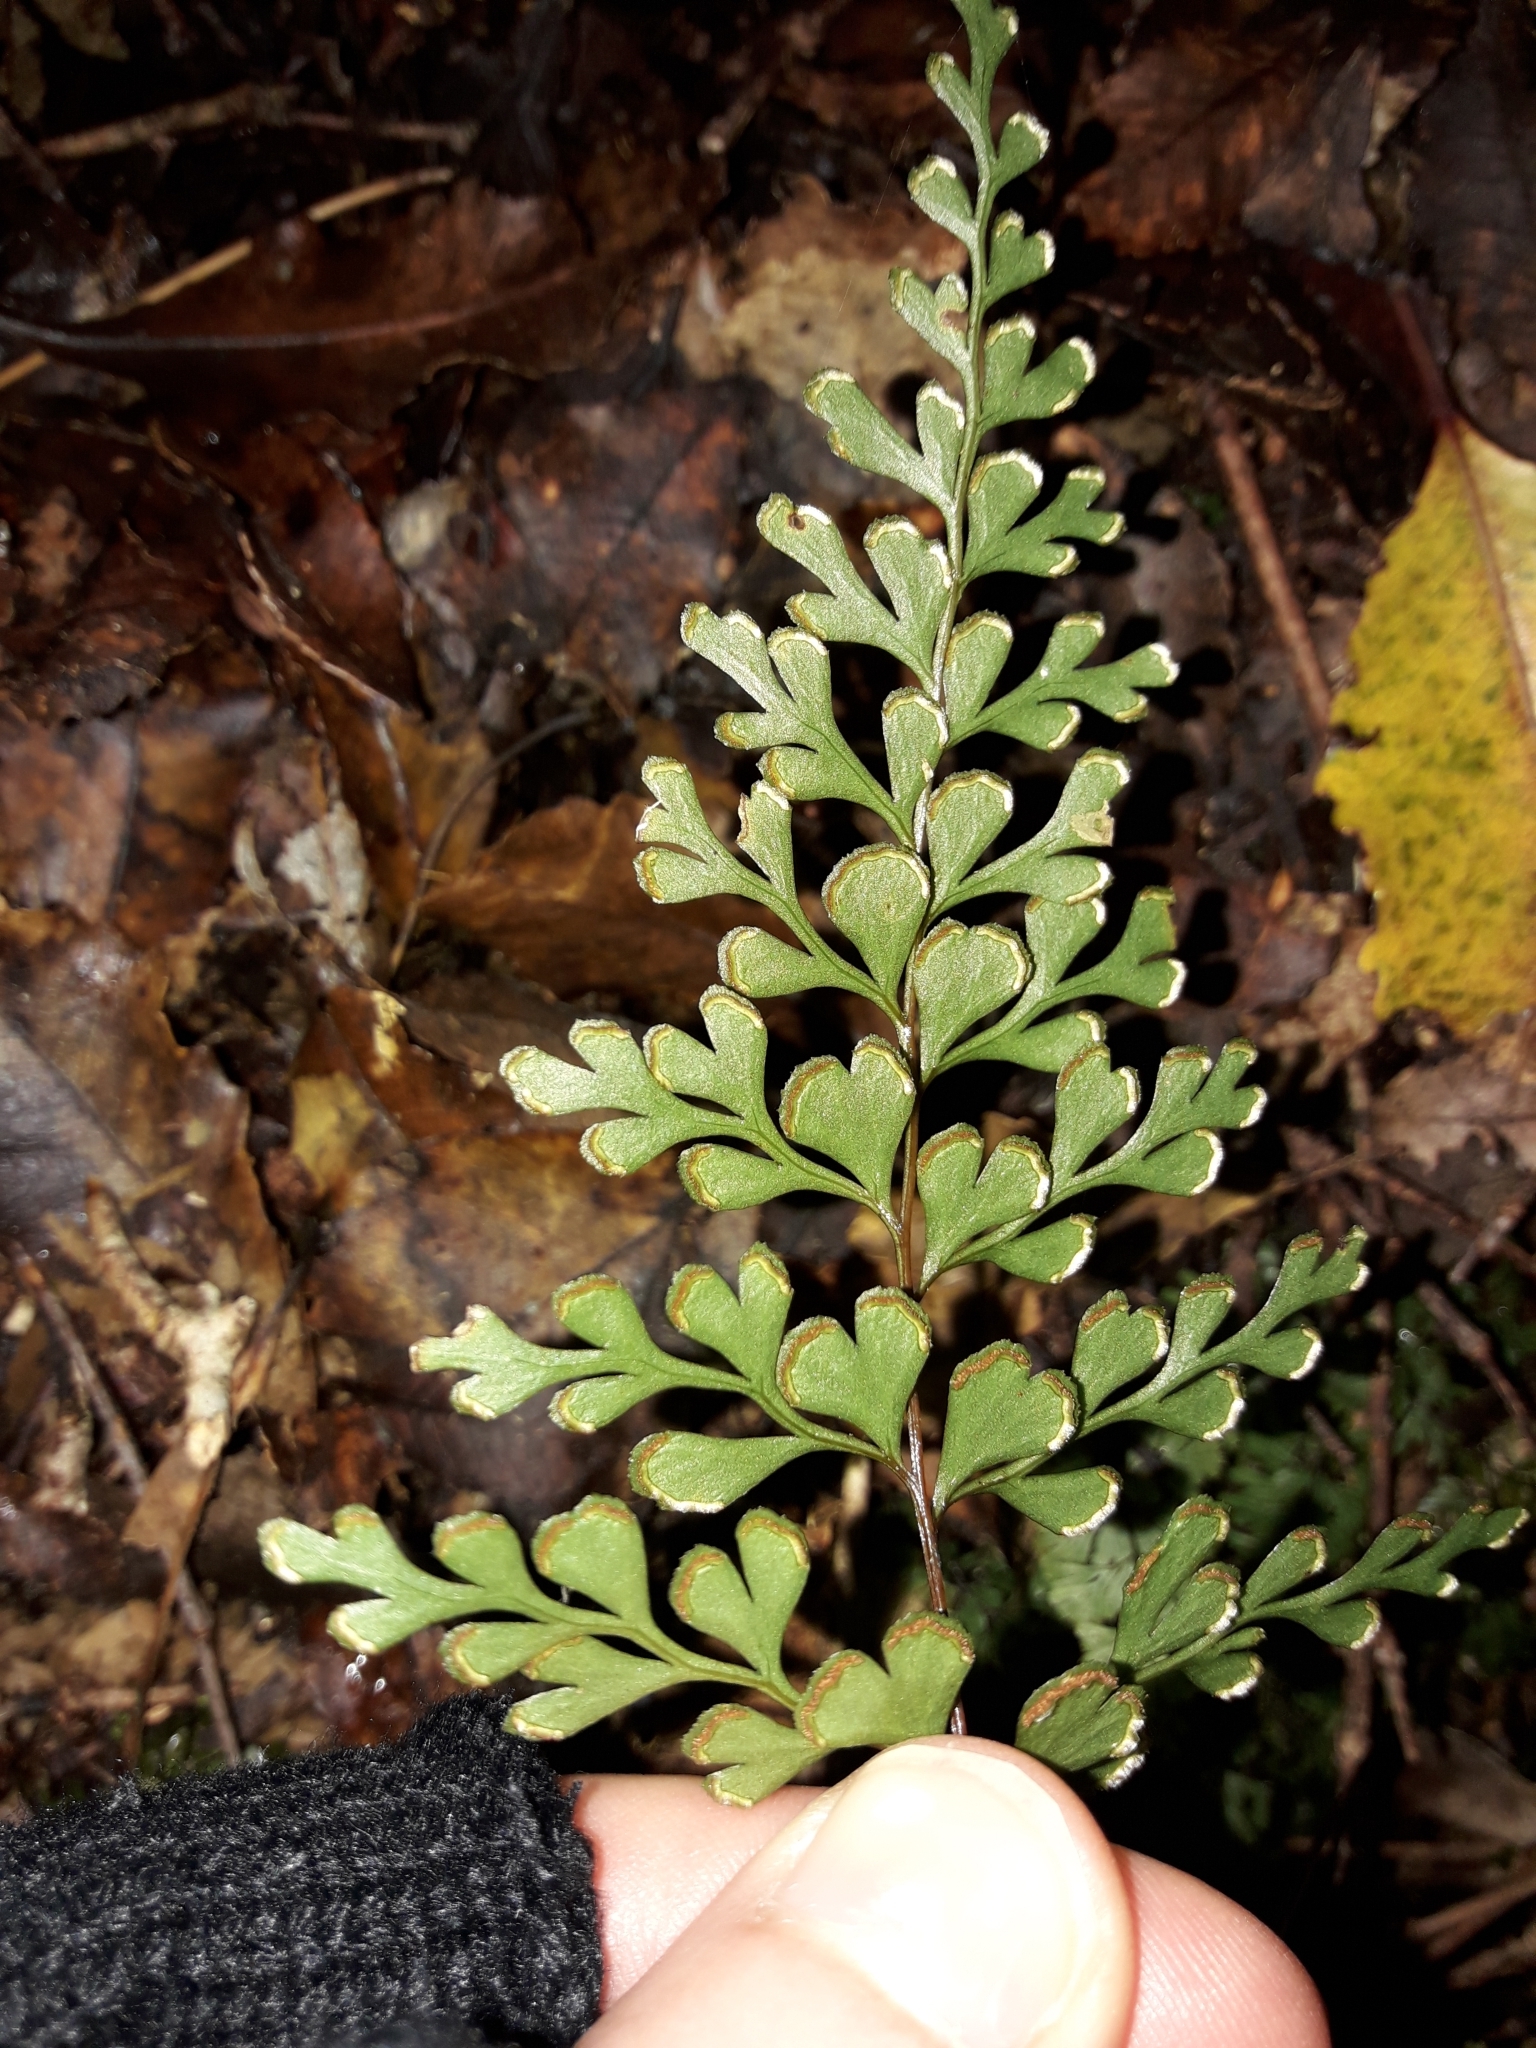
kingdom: Plantae
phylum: Tracheophyta
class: Polypodiopsida
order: Polypodiales
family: Lindsaeaceae
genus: Lindsaea
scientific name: Lindsaea trichomanoides
